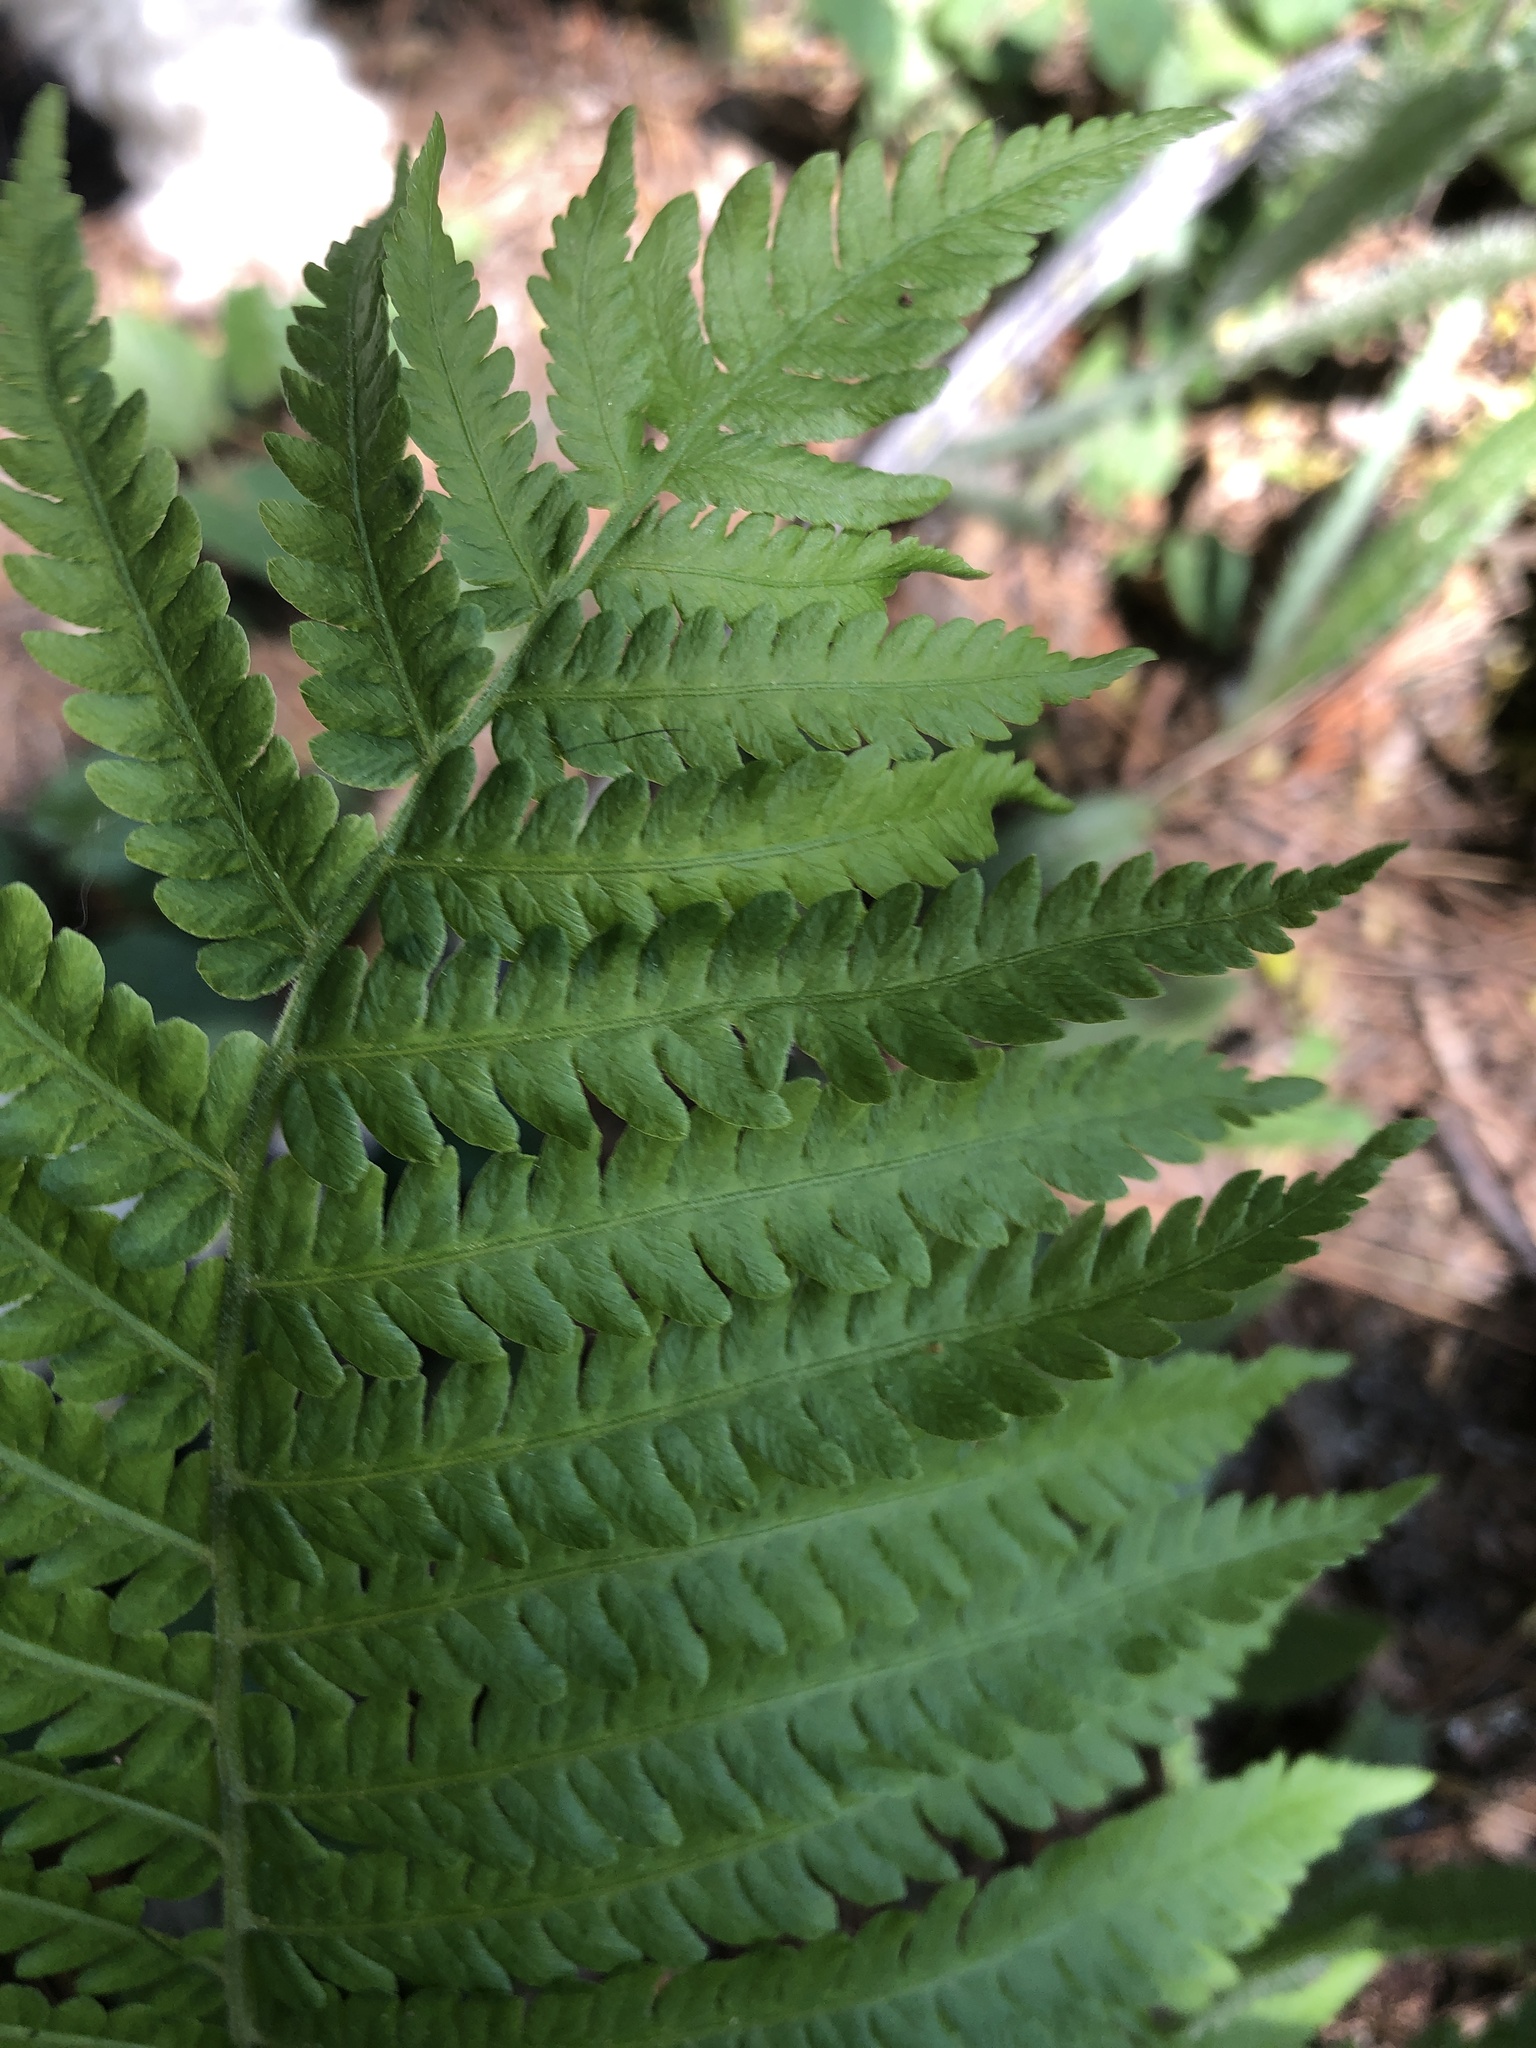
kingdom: Plantae
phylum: Tracheophyta
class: Polypodiopsida
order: Polypodiales
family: Onocleaceae
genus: Matteuccia
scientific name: Matteuccia struthiopteris
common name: Ostrich fern
